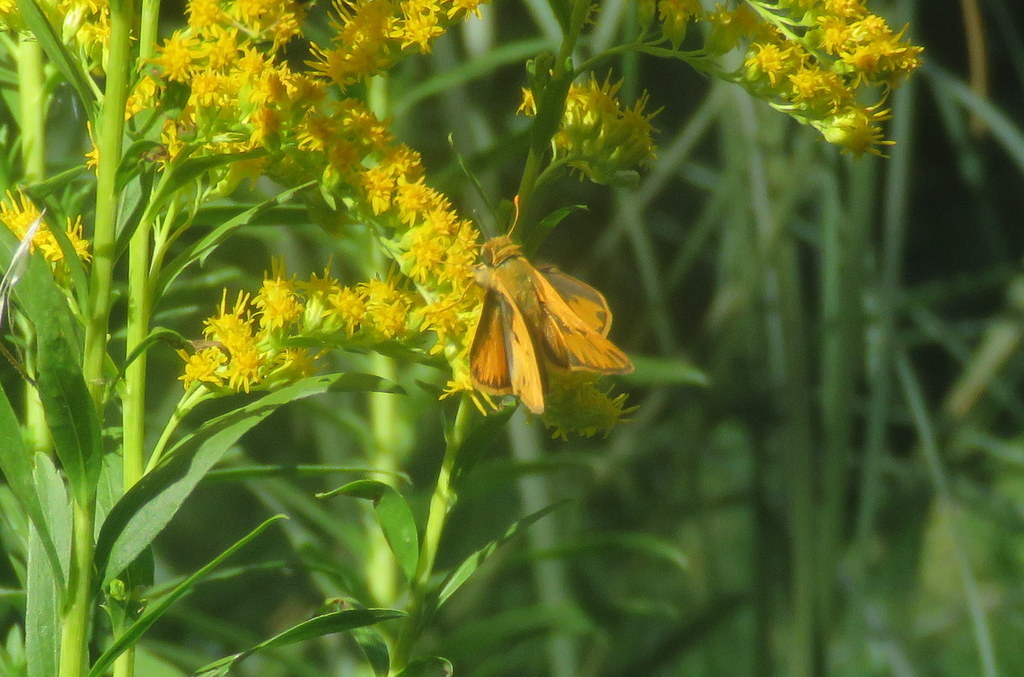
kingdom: Animalia
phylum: Arthropoda
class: Insecta
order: Lepidoptera
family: Hesperiidae
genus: Hylephila
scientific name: Hylephila phyleus
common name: Fiery skipper
